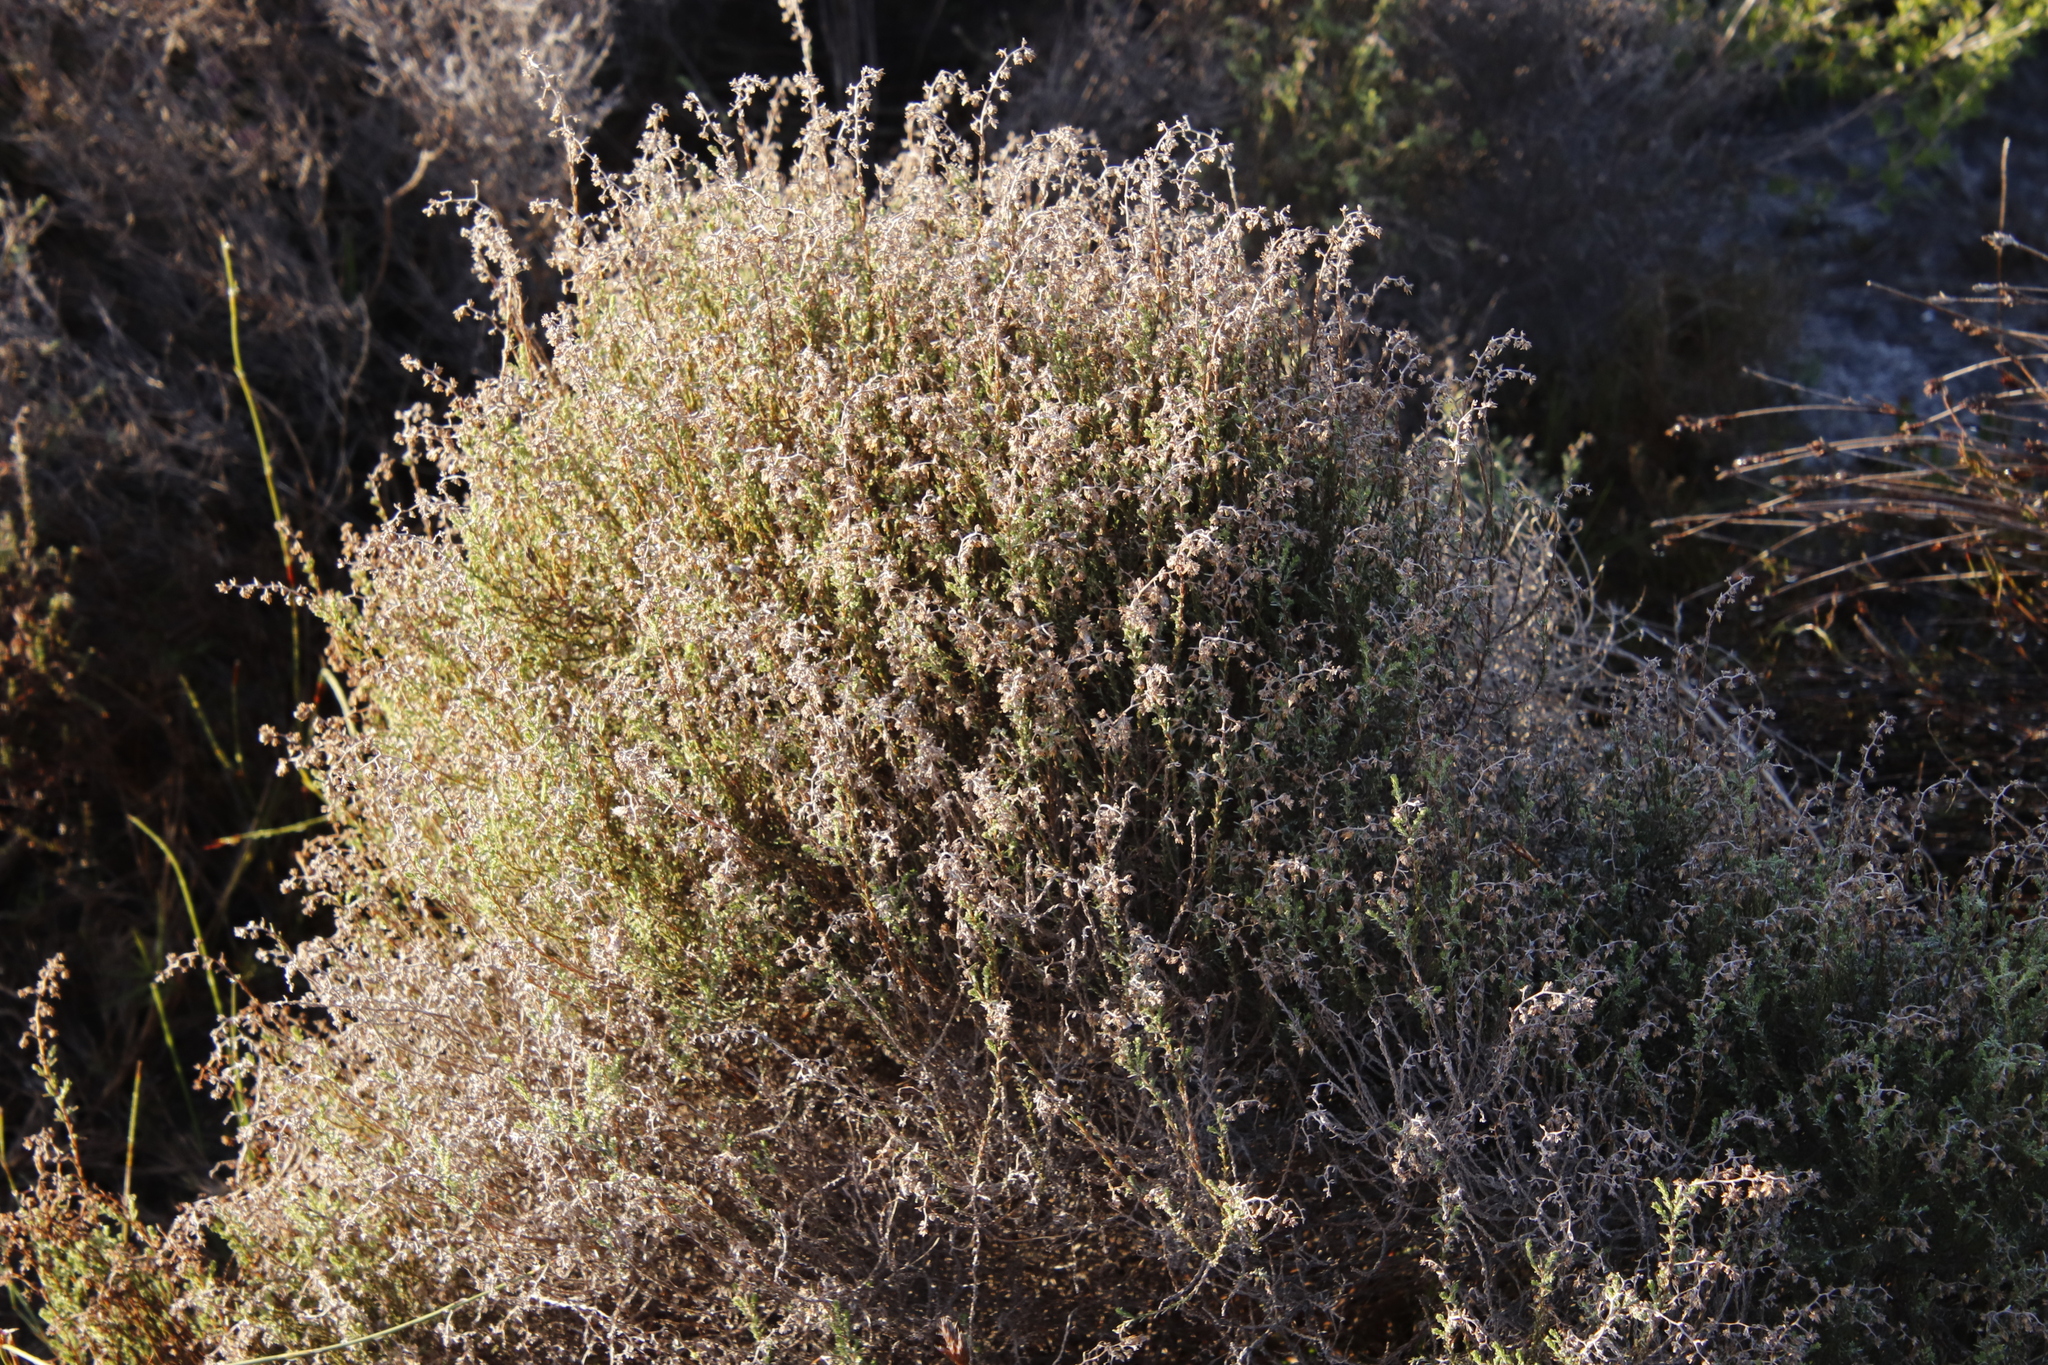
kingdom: Plantae
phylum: Tracheophyta
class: Magnoliopsida
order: Asterales
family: Asteraceae
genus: Myrovernix
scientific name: Myrovernix scaber
